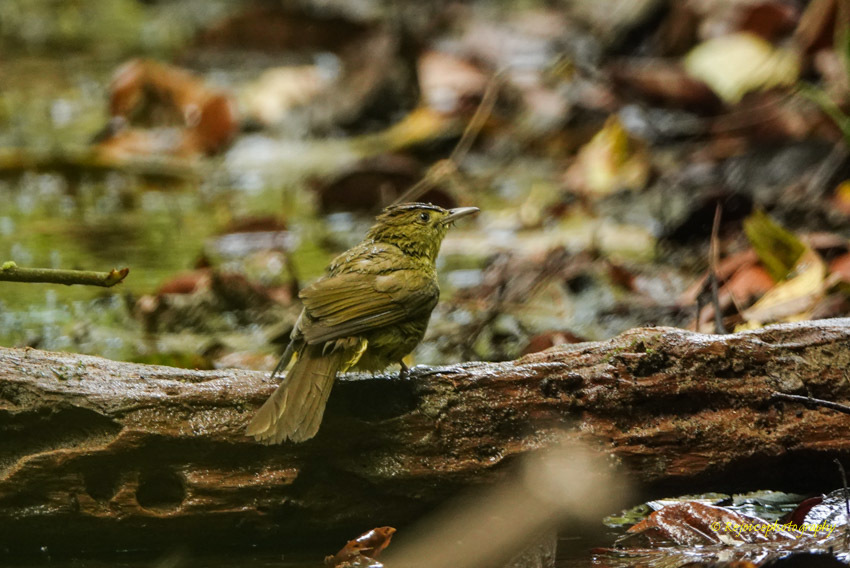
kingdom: Animalia
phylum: Chordata
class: Aves
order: Passeriformes
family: Pycnonotidae
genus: Iole
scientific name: Iole virescens
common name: Olive bulbul
